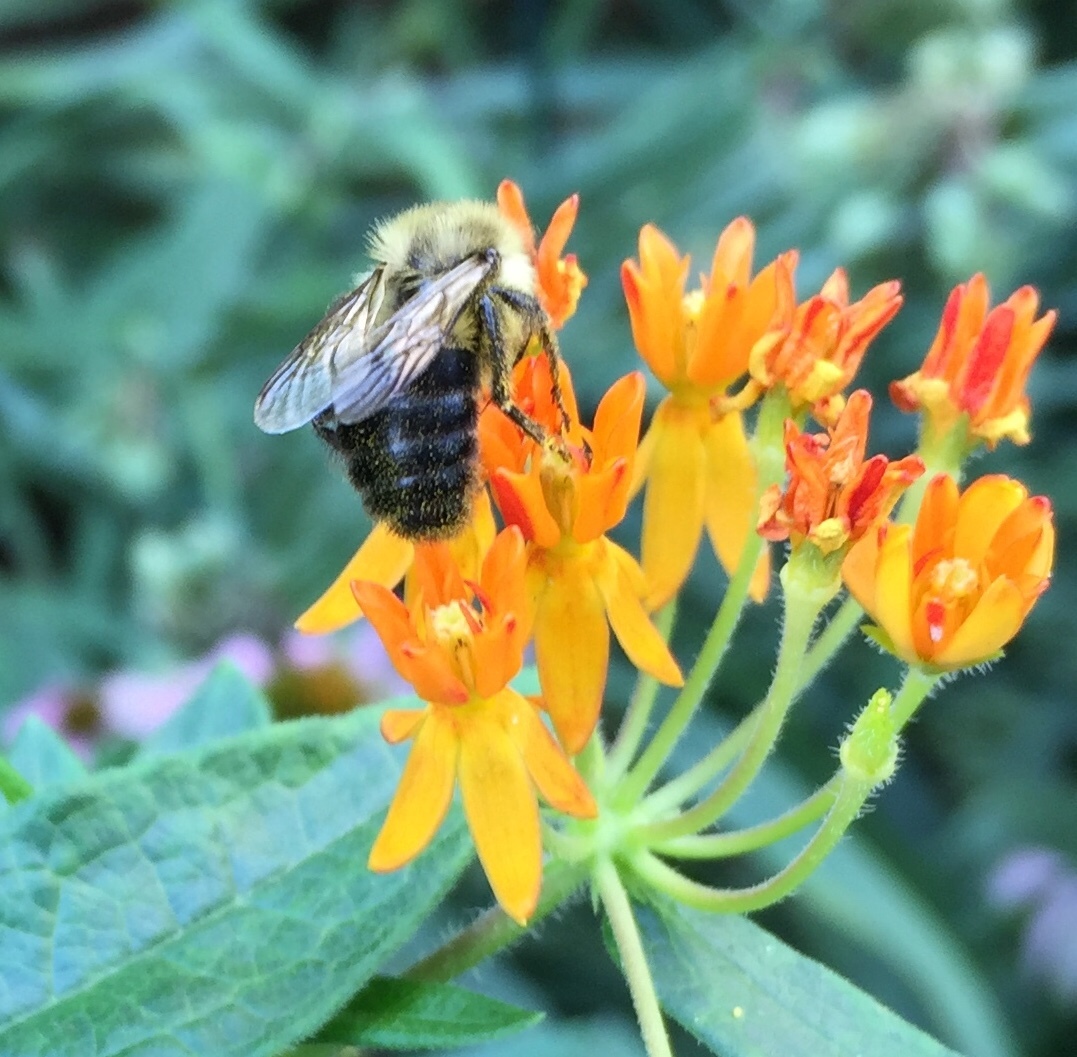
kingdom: Animalia
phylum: Arthropoda
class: Insecta
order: Hymenoptera
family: Apidae
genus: Bombus
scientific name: Bombus impatiens
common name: Common eastern bumble bee
